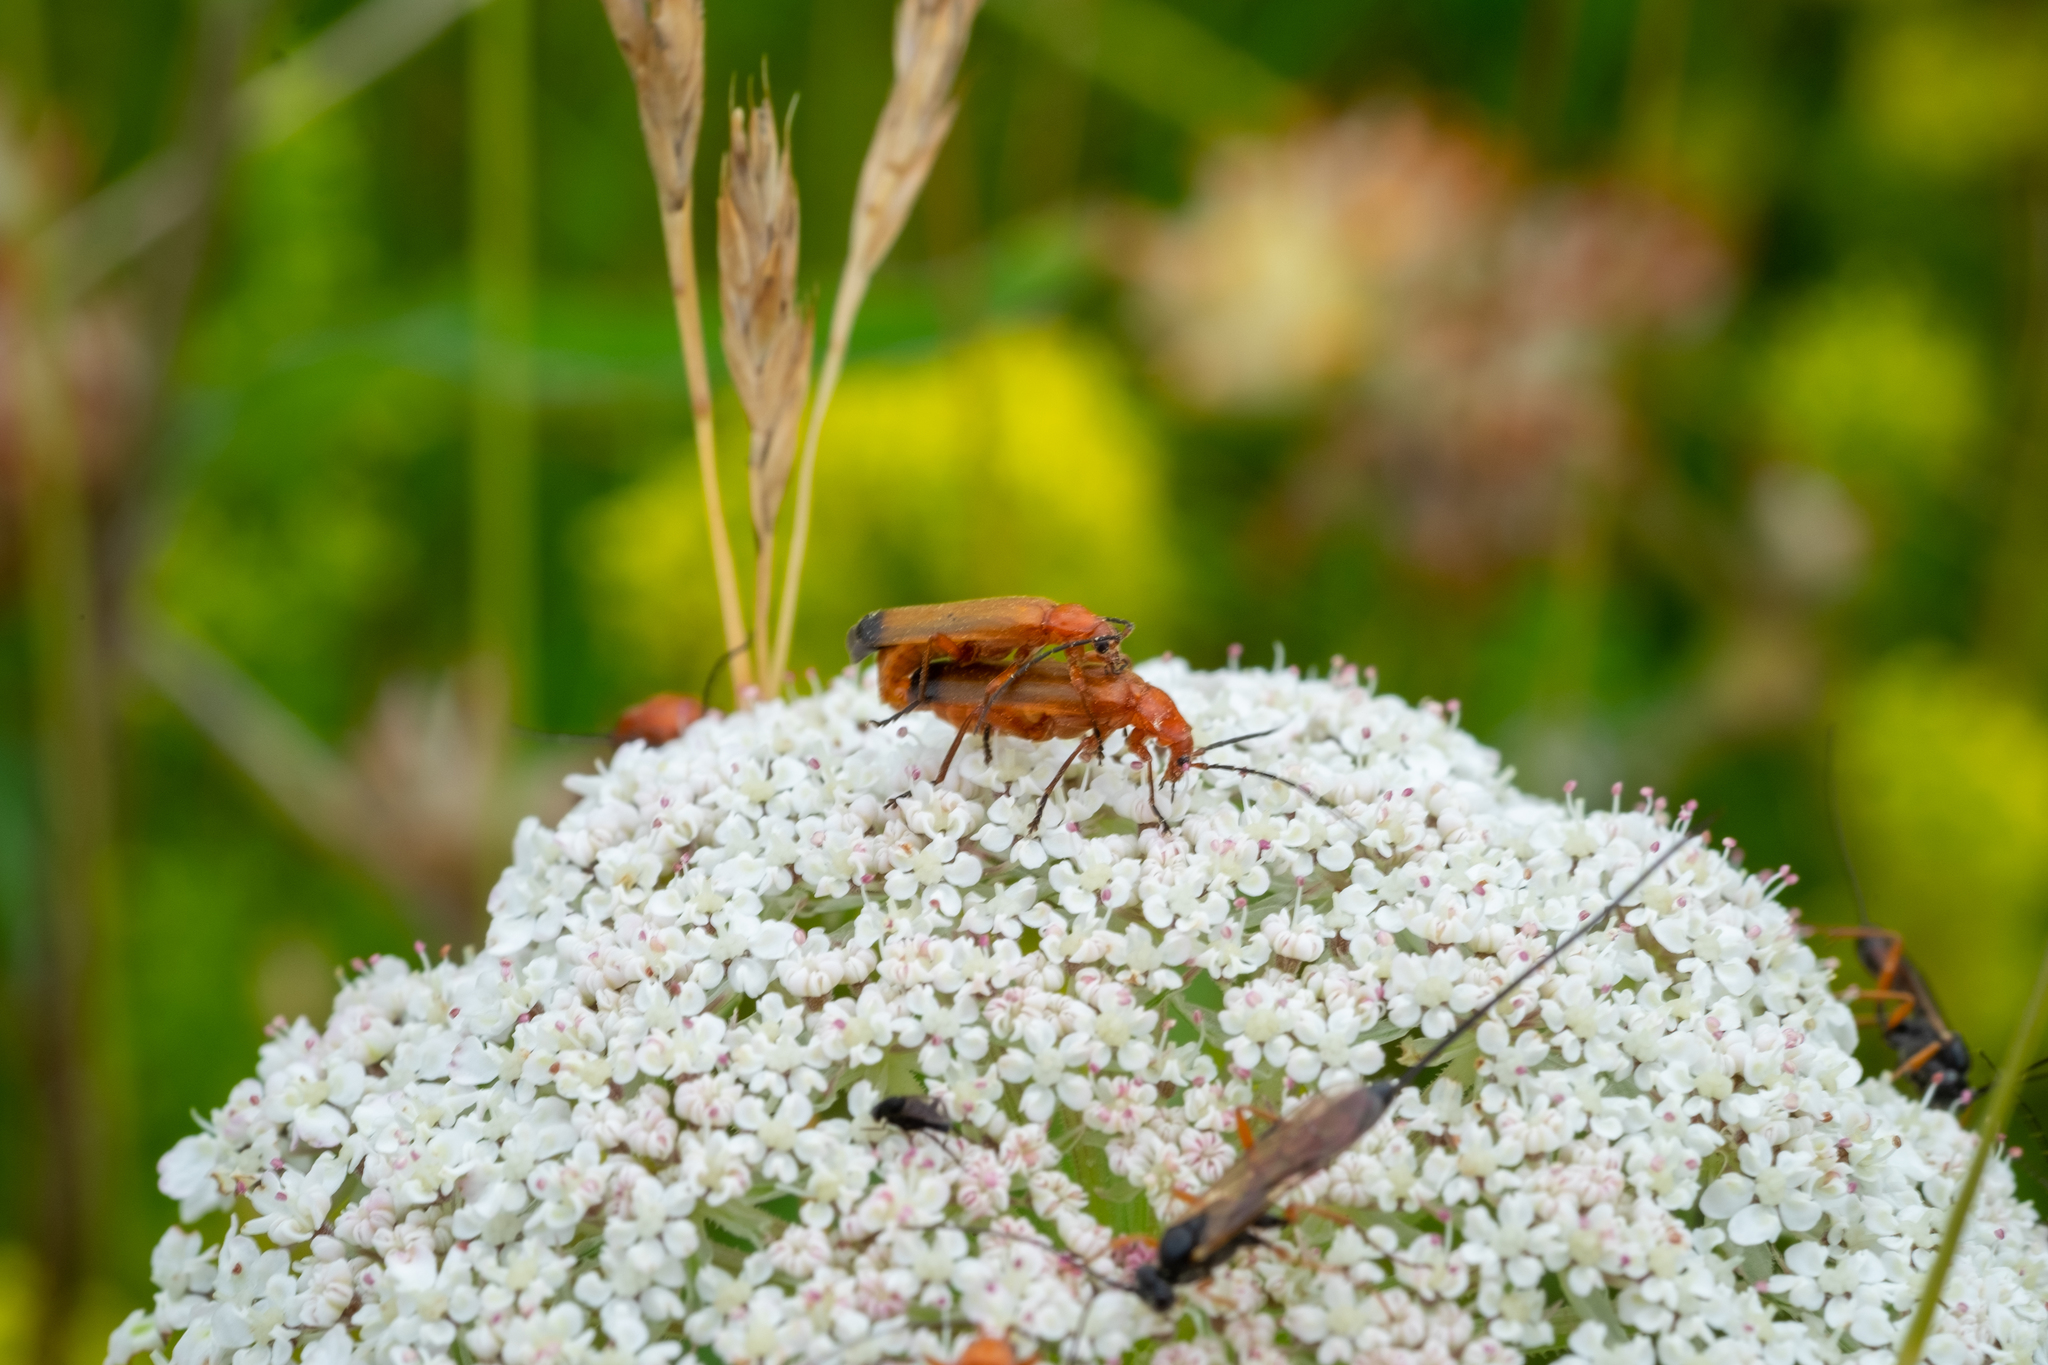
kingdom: Animalia
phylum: Arthropoda
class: Insecta
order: Coleoptera
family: Cantharidae
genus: Rhagonycha
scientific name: Rhagonycha fulva
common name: Common red soldier beetle
